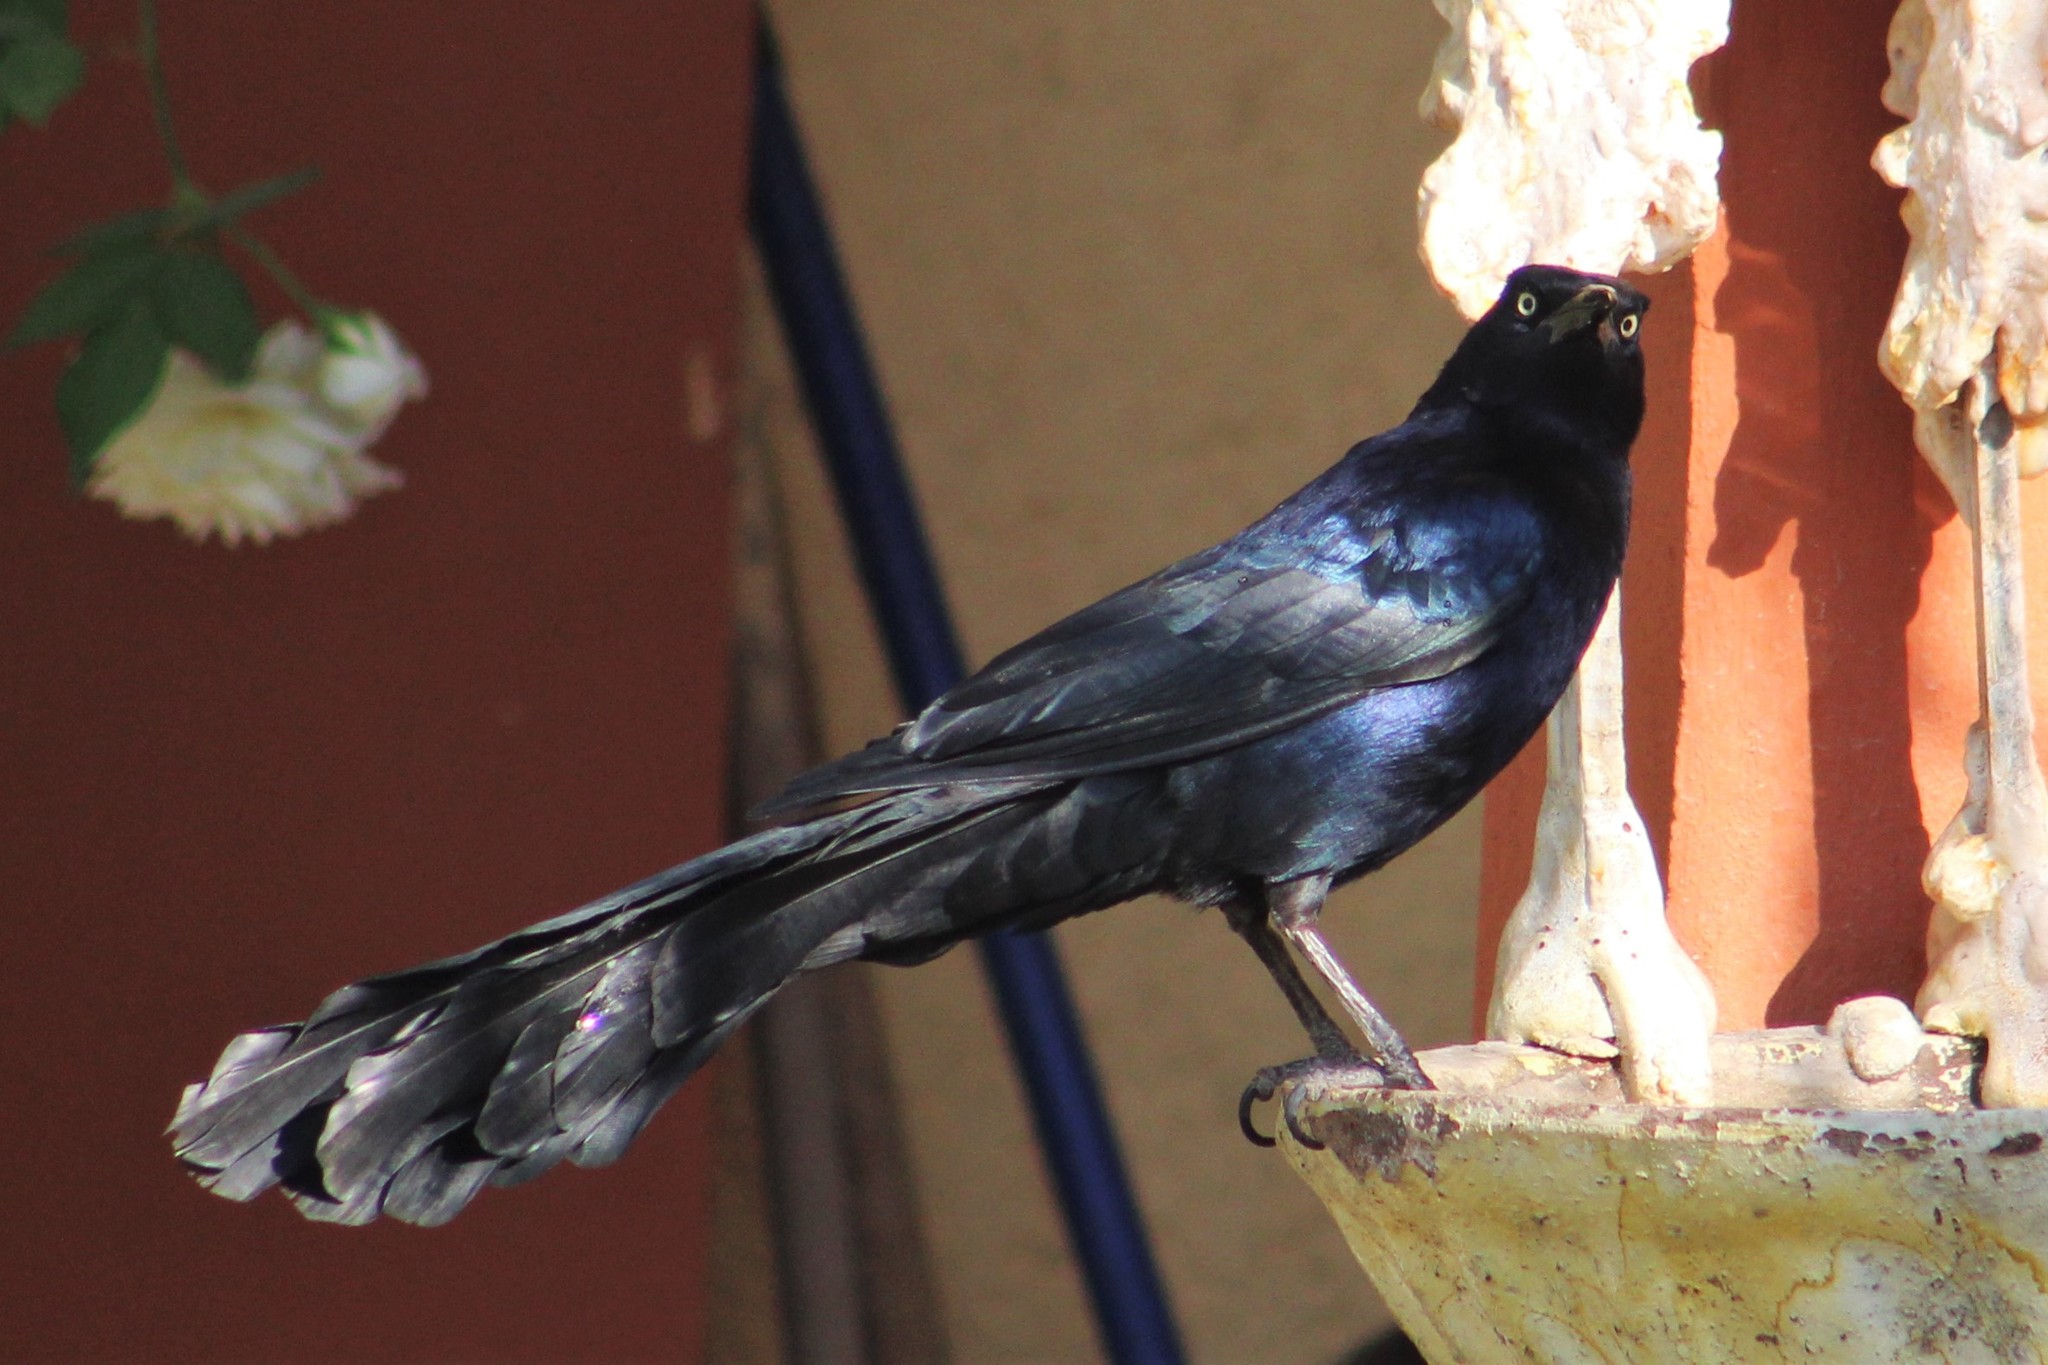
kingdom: Animalia
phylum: Chordata
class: Aves
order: Passeriformes
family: Icteridae
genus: Quiscalus
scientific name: Quiscalus mexicanus
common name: Great-tailed grackle
